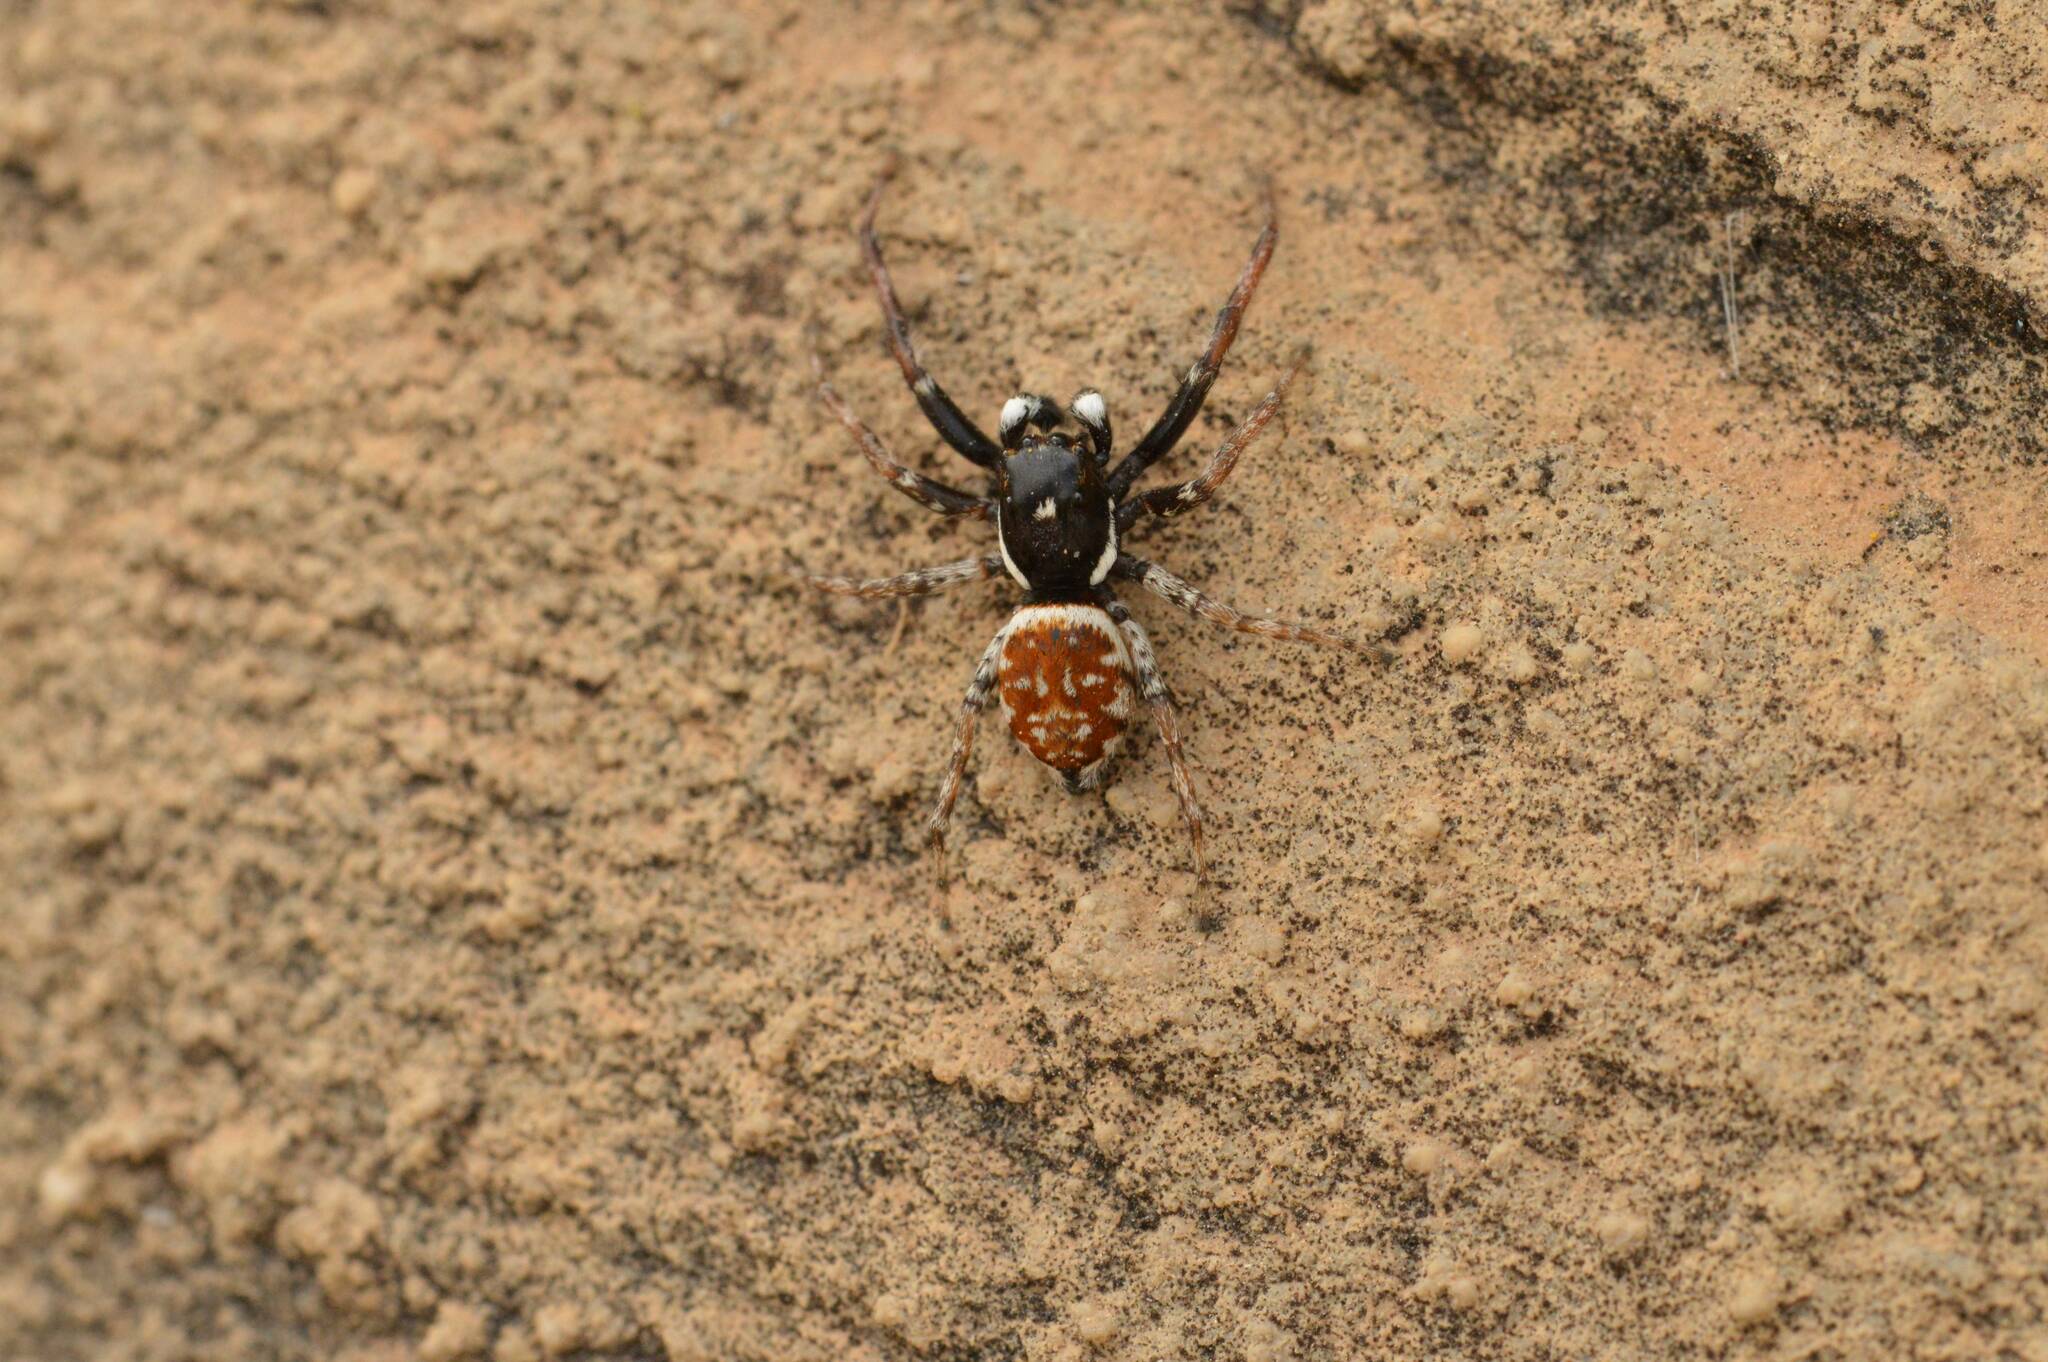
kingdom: Animalia
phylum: Arthropoda
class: Arachnida
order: Araneae
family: Salticidae
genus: Menemerus
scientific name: Menemerus semilimbatus
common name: Jumping spider
